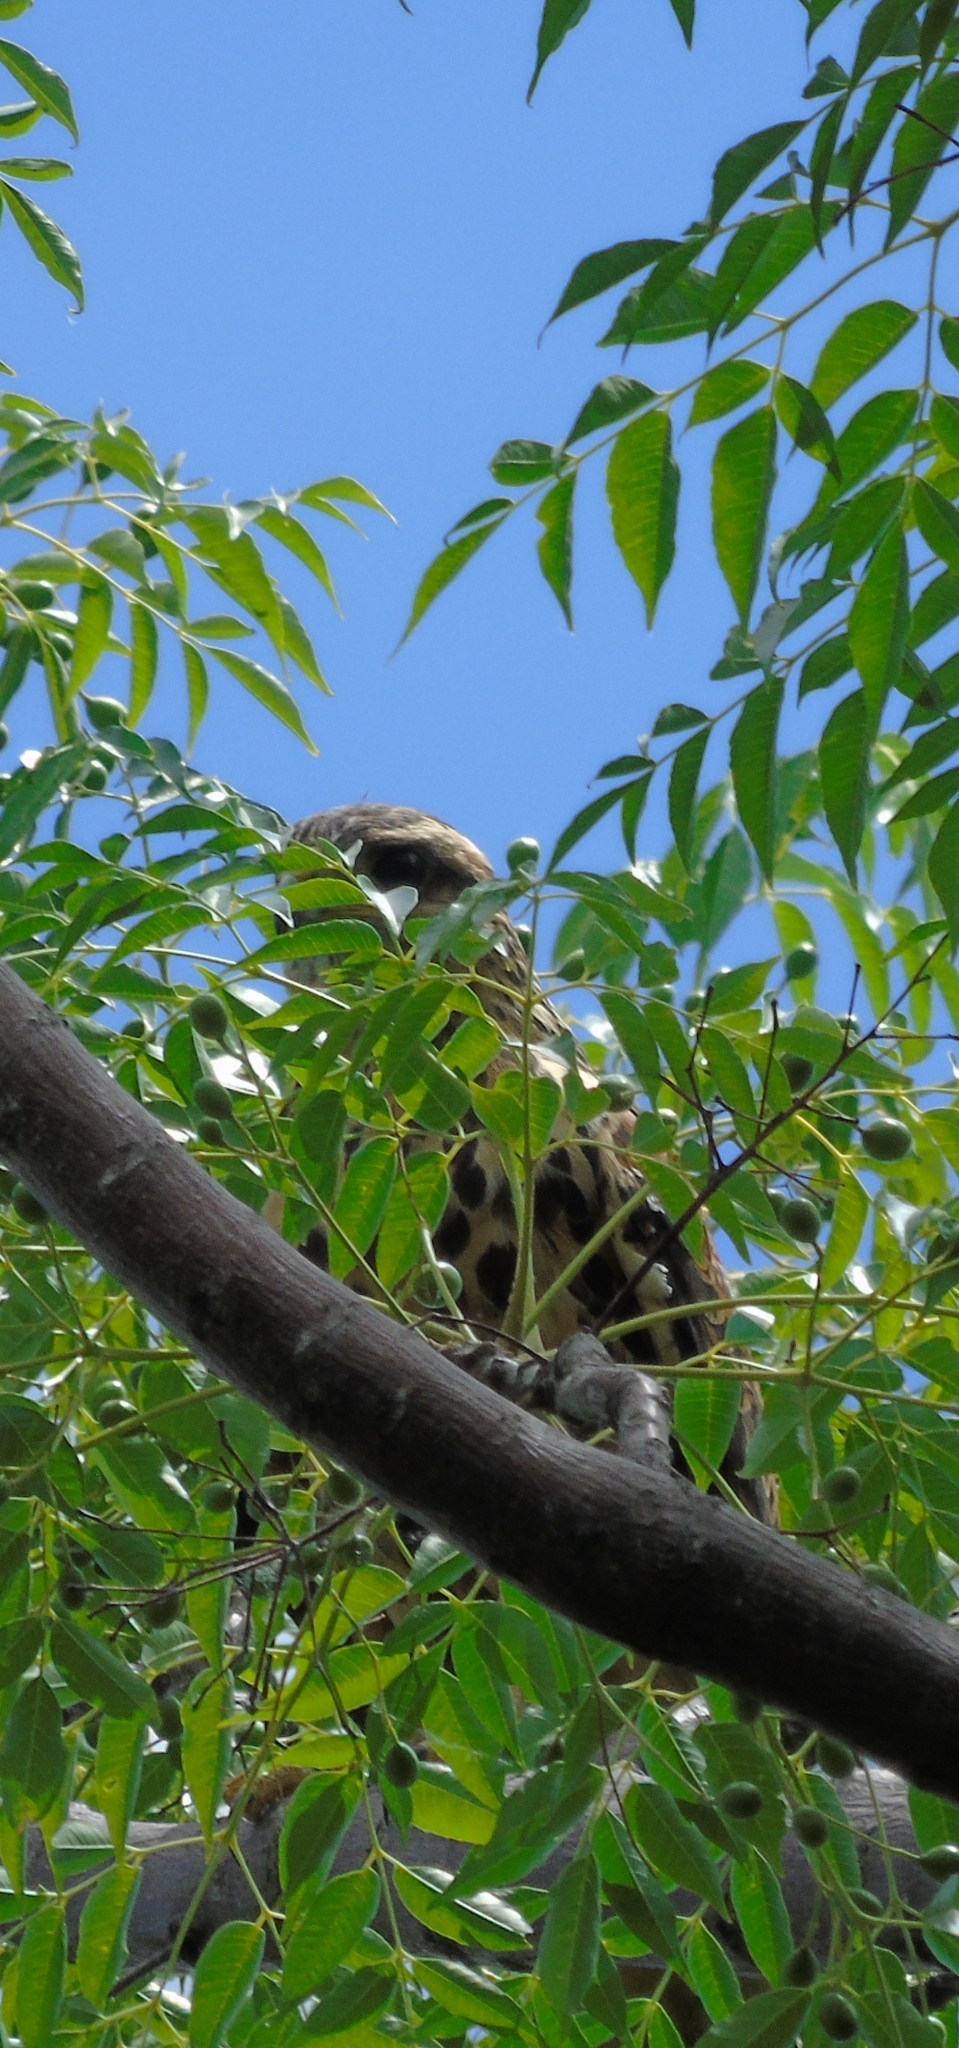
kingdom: Animalia
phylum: Chordata
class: Aves
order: Accipitriformes
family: Accipitridae
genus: Parabuteo
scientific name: Parabuteo unicinctus
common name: Harris's hawk
